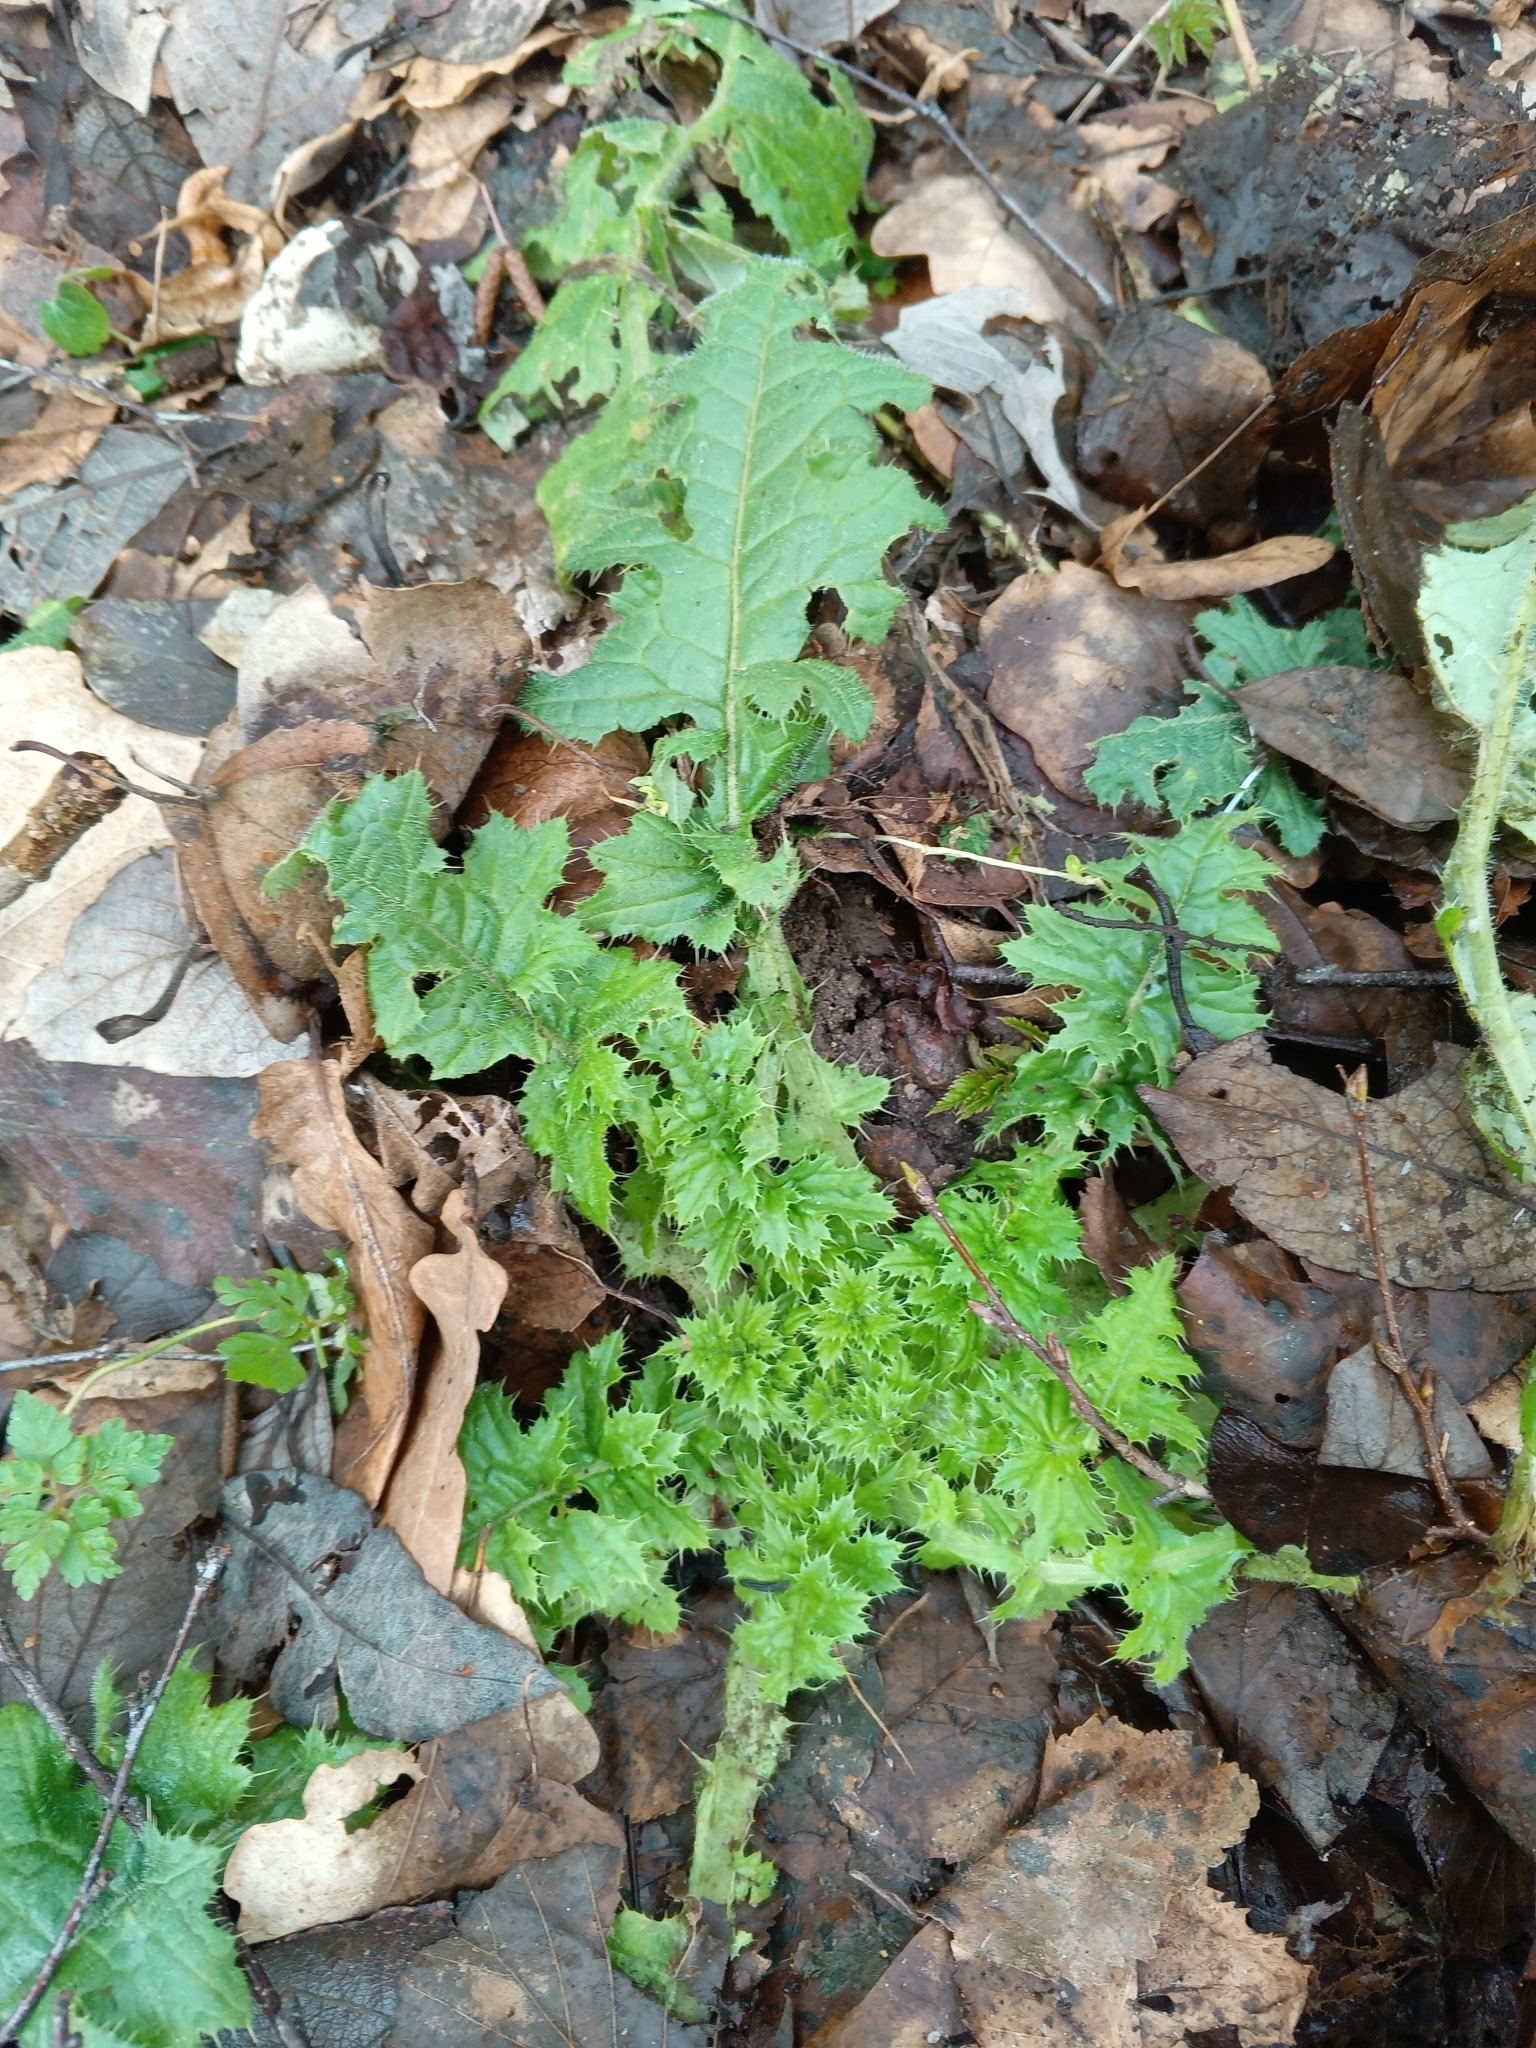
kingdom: Plantae
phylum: Tracheophyta
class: Magnoliopsida
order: Asterales
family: Asteraceae
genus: Carduus
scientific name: Carduus crispus
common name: Welted thistle
